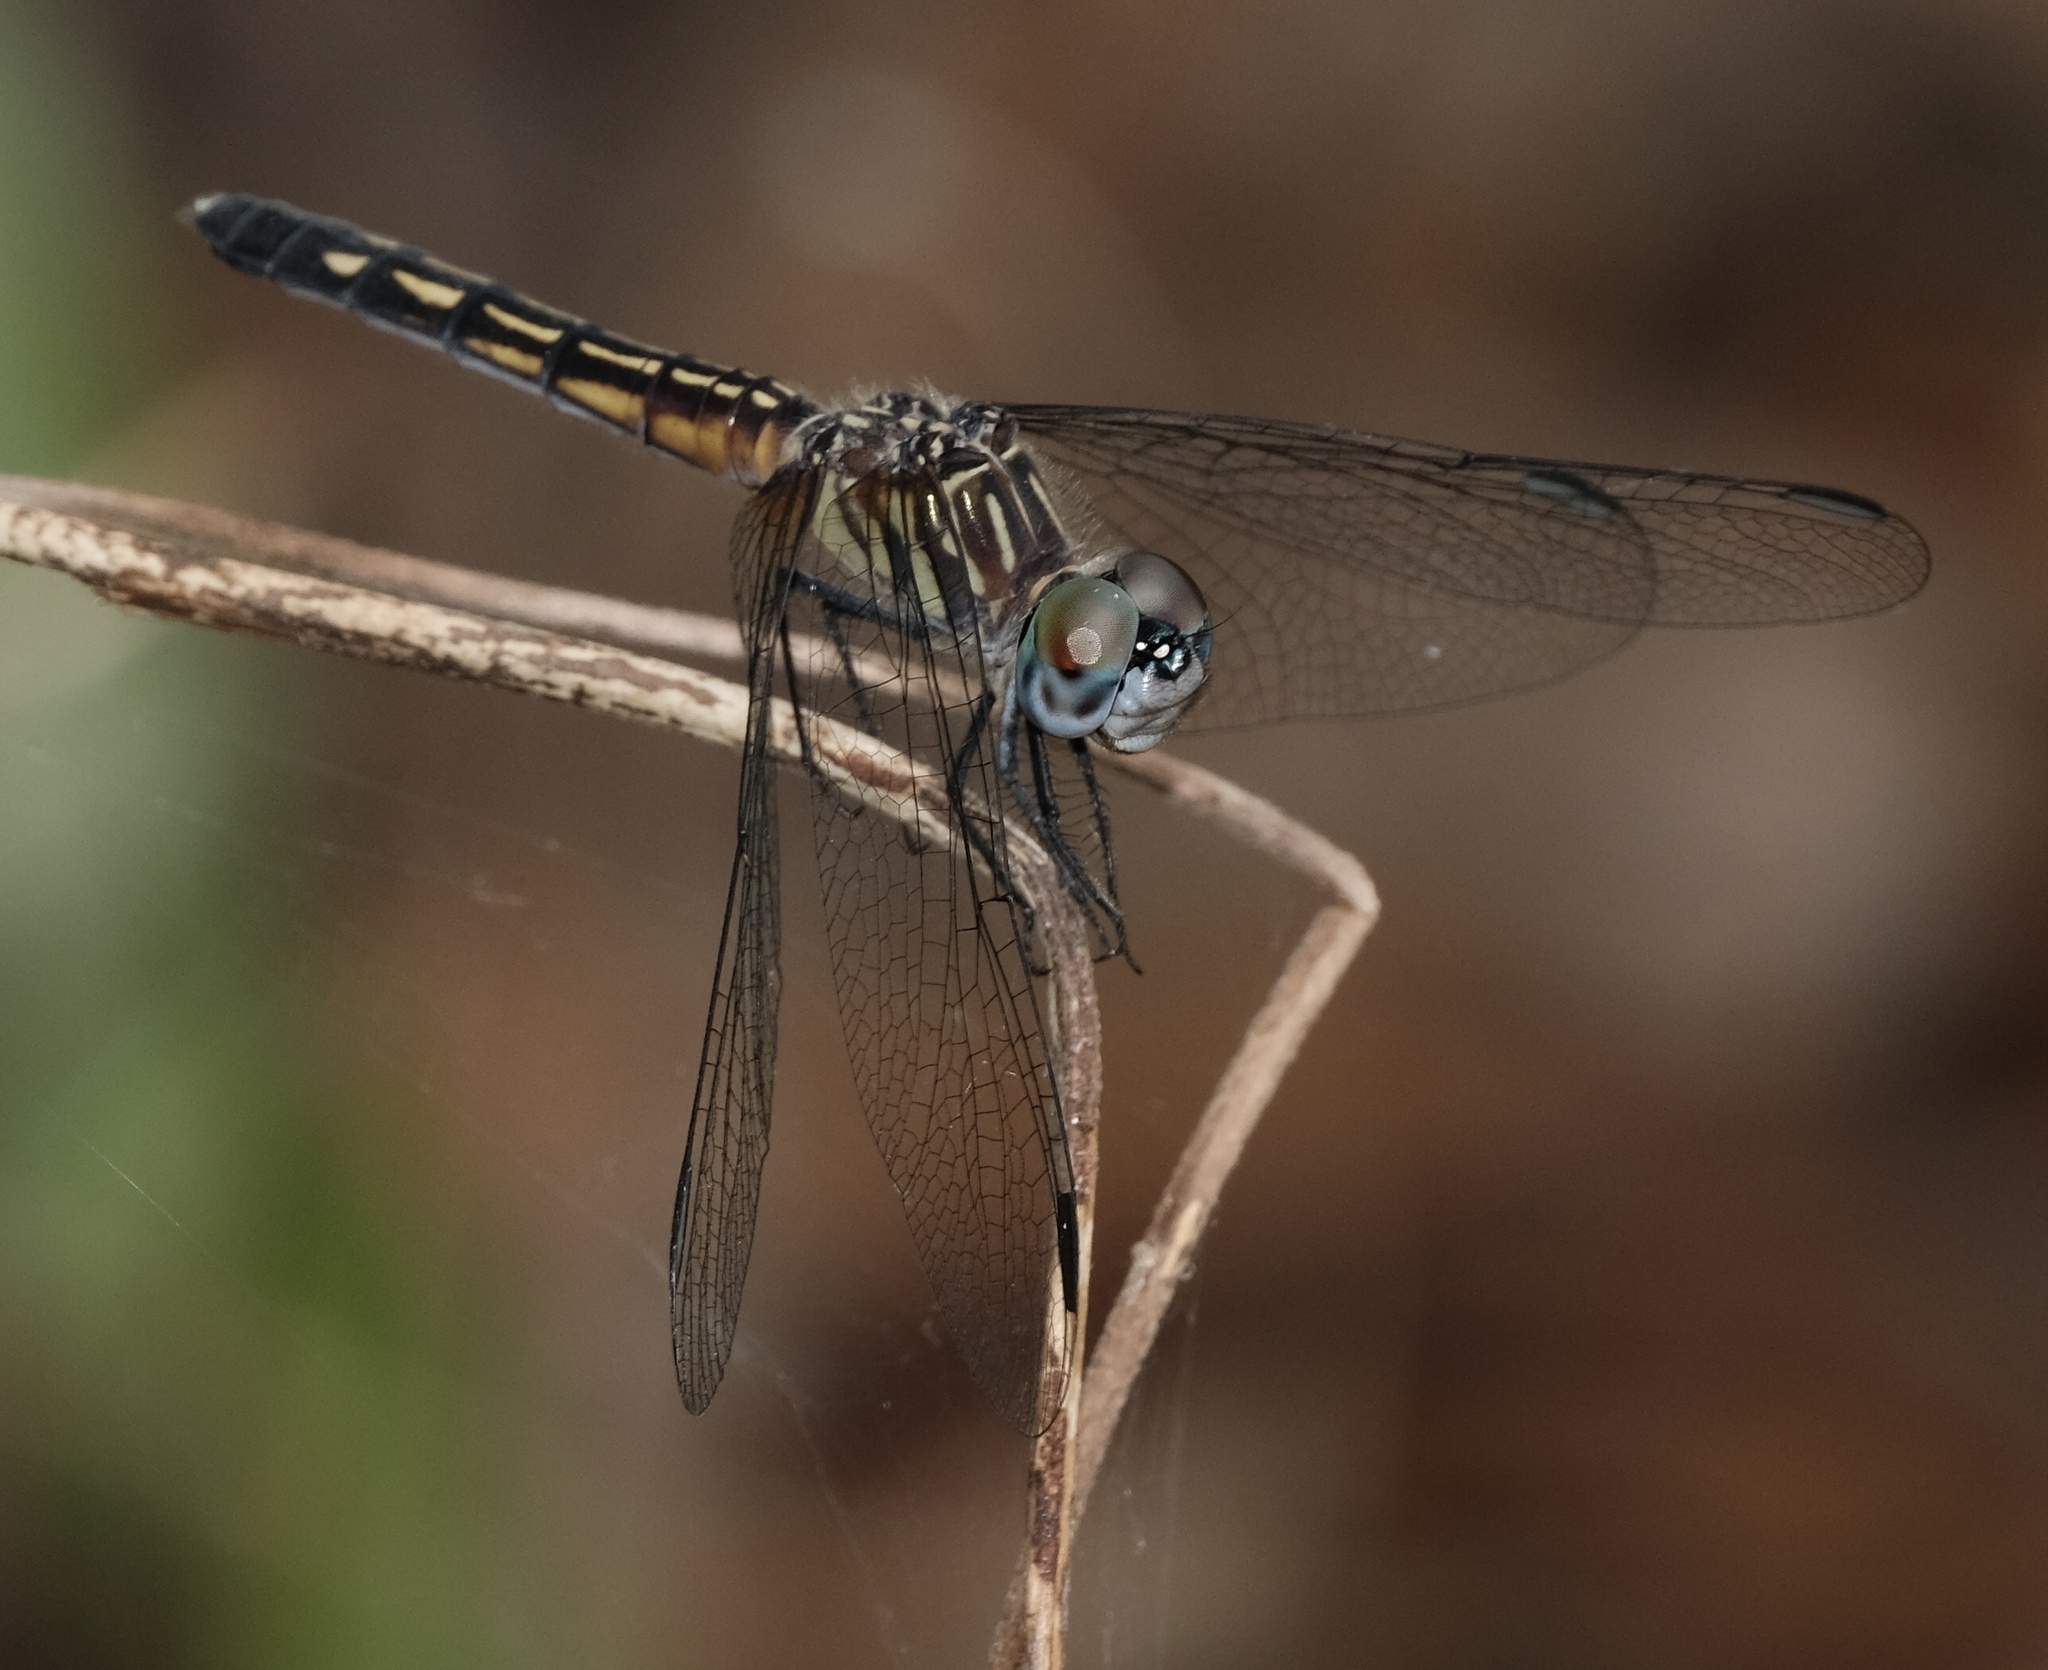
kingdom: Animalia
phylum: Arthropoda
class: Insecta
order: Odonata
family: Libellulidae
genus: Pachydiplax
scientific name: Pachydiplax longipennis
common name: Blue dasher
